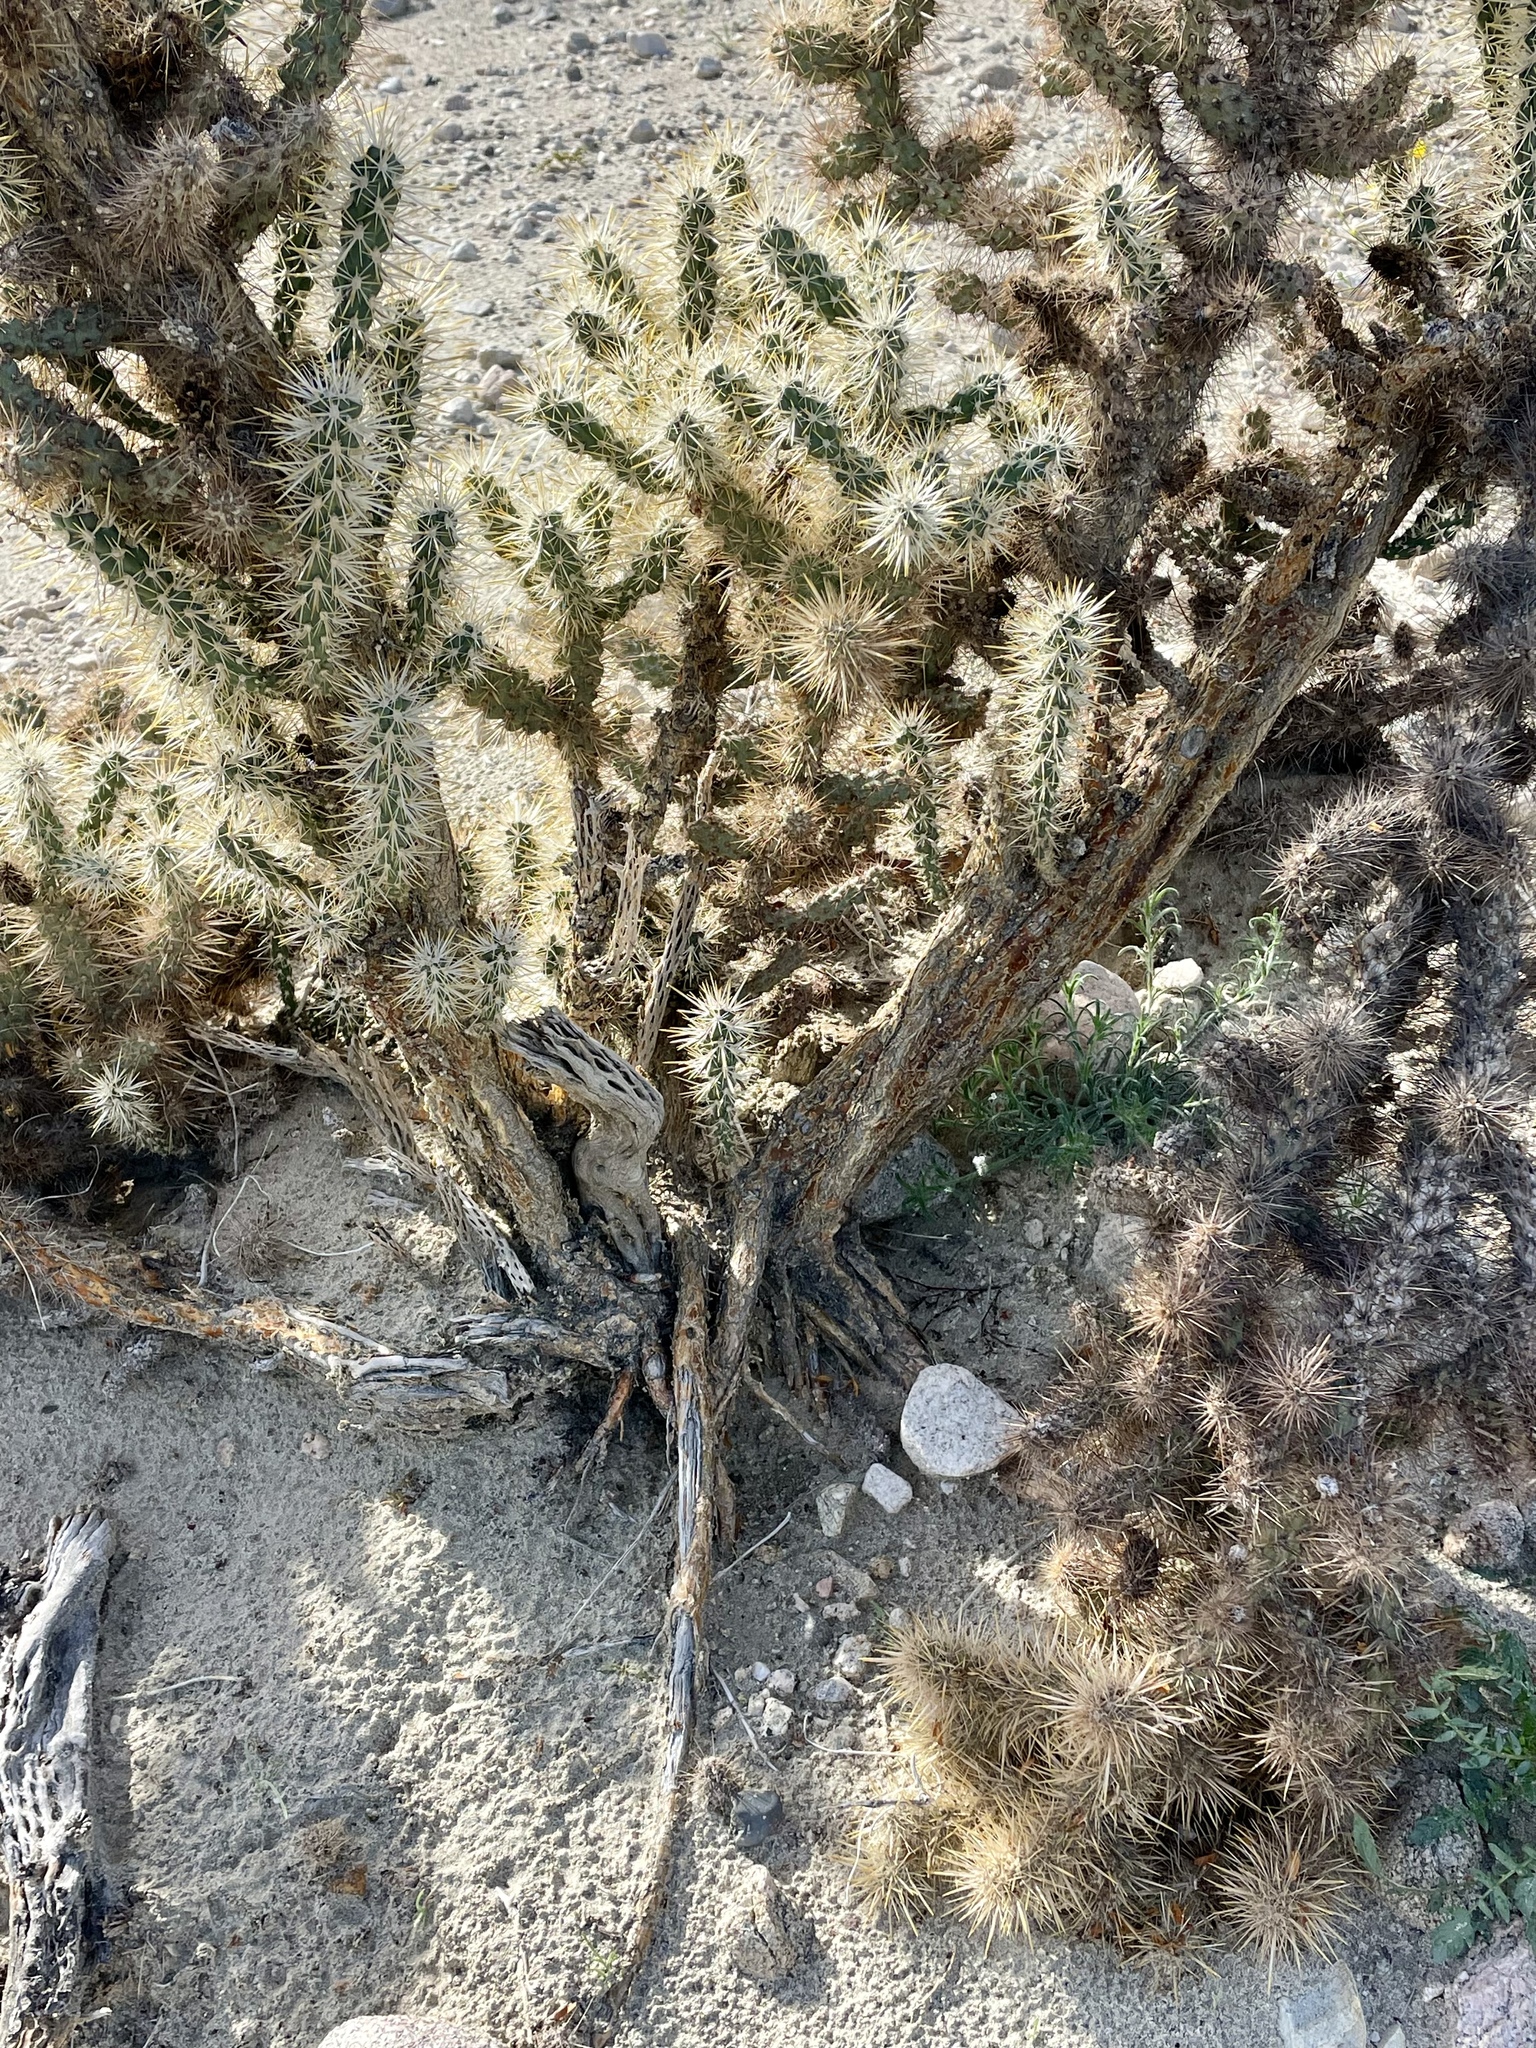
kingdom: Plantae
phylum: Tracheophyta
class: Magnoliopsida
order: Caryophyllales
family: Cactaceae
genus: Cylindropuntia
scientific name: Cylindropuntia echinocarpa
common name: Ground cholla
